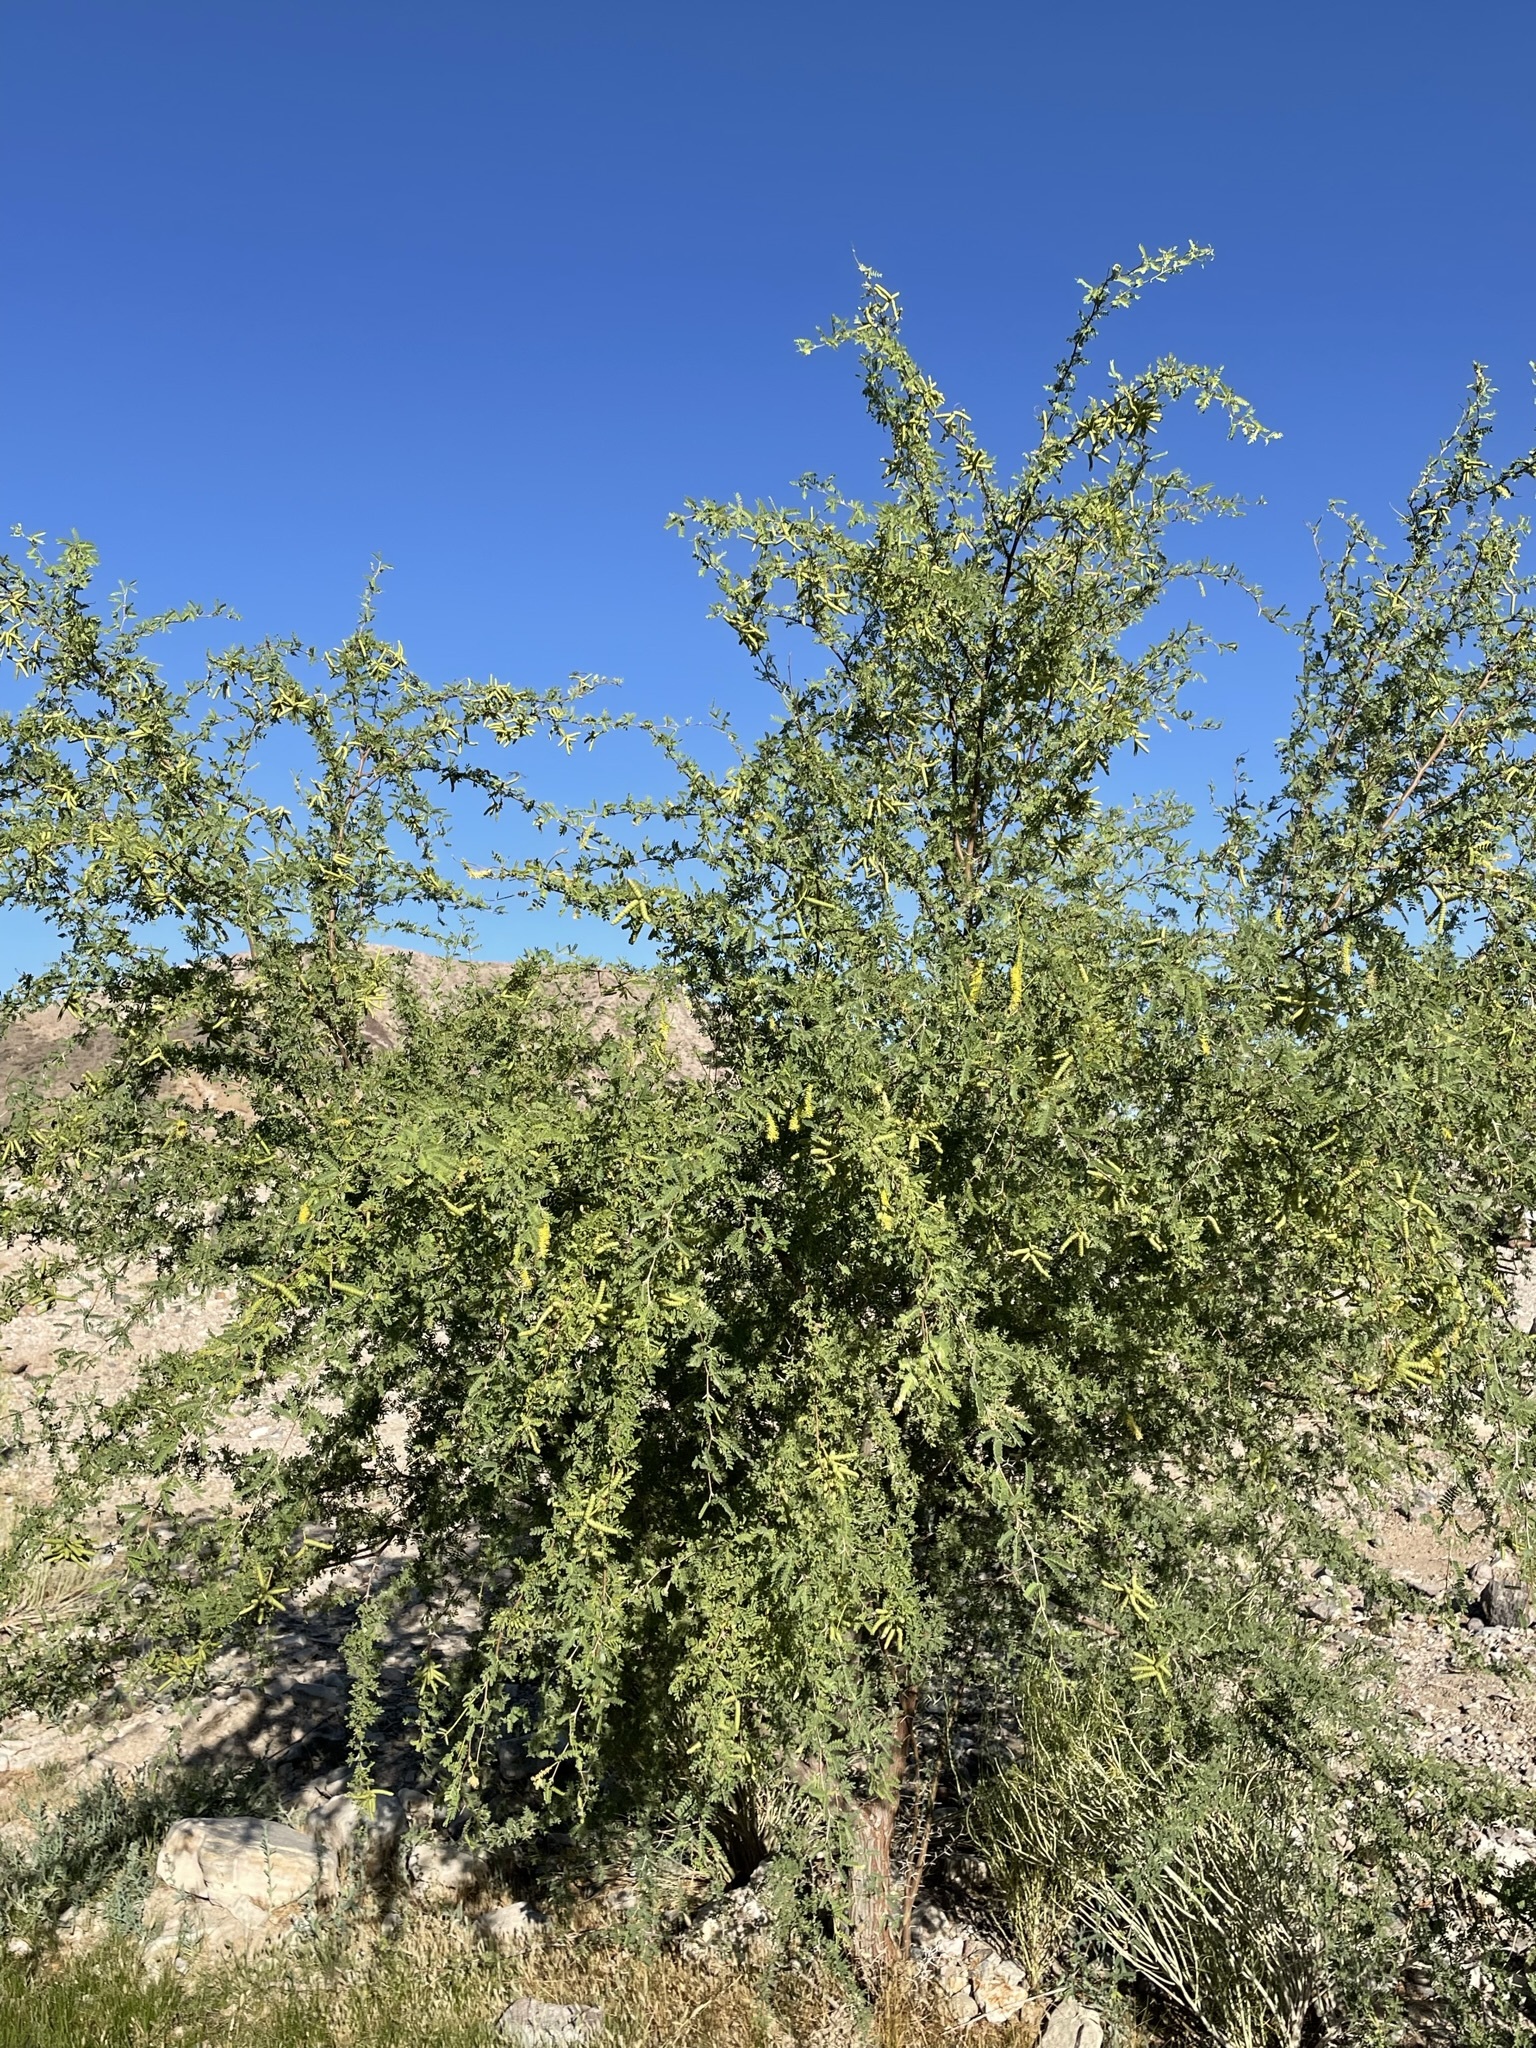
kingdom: Plantae
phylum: Tracheophyta
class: Magnoliopsida
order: Fabales
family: Fabaceae
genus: Prosopis
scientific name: Prosopis pubescens
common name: Screw-bean
